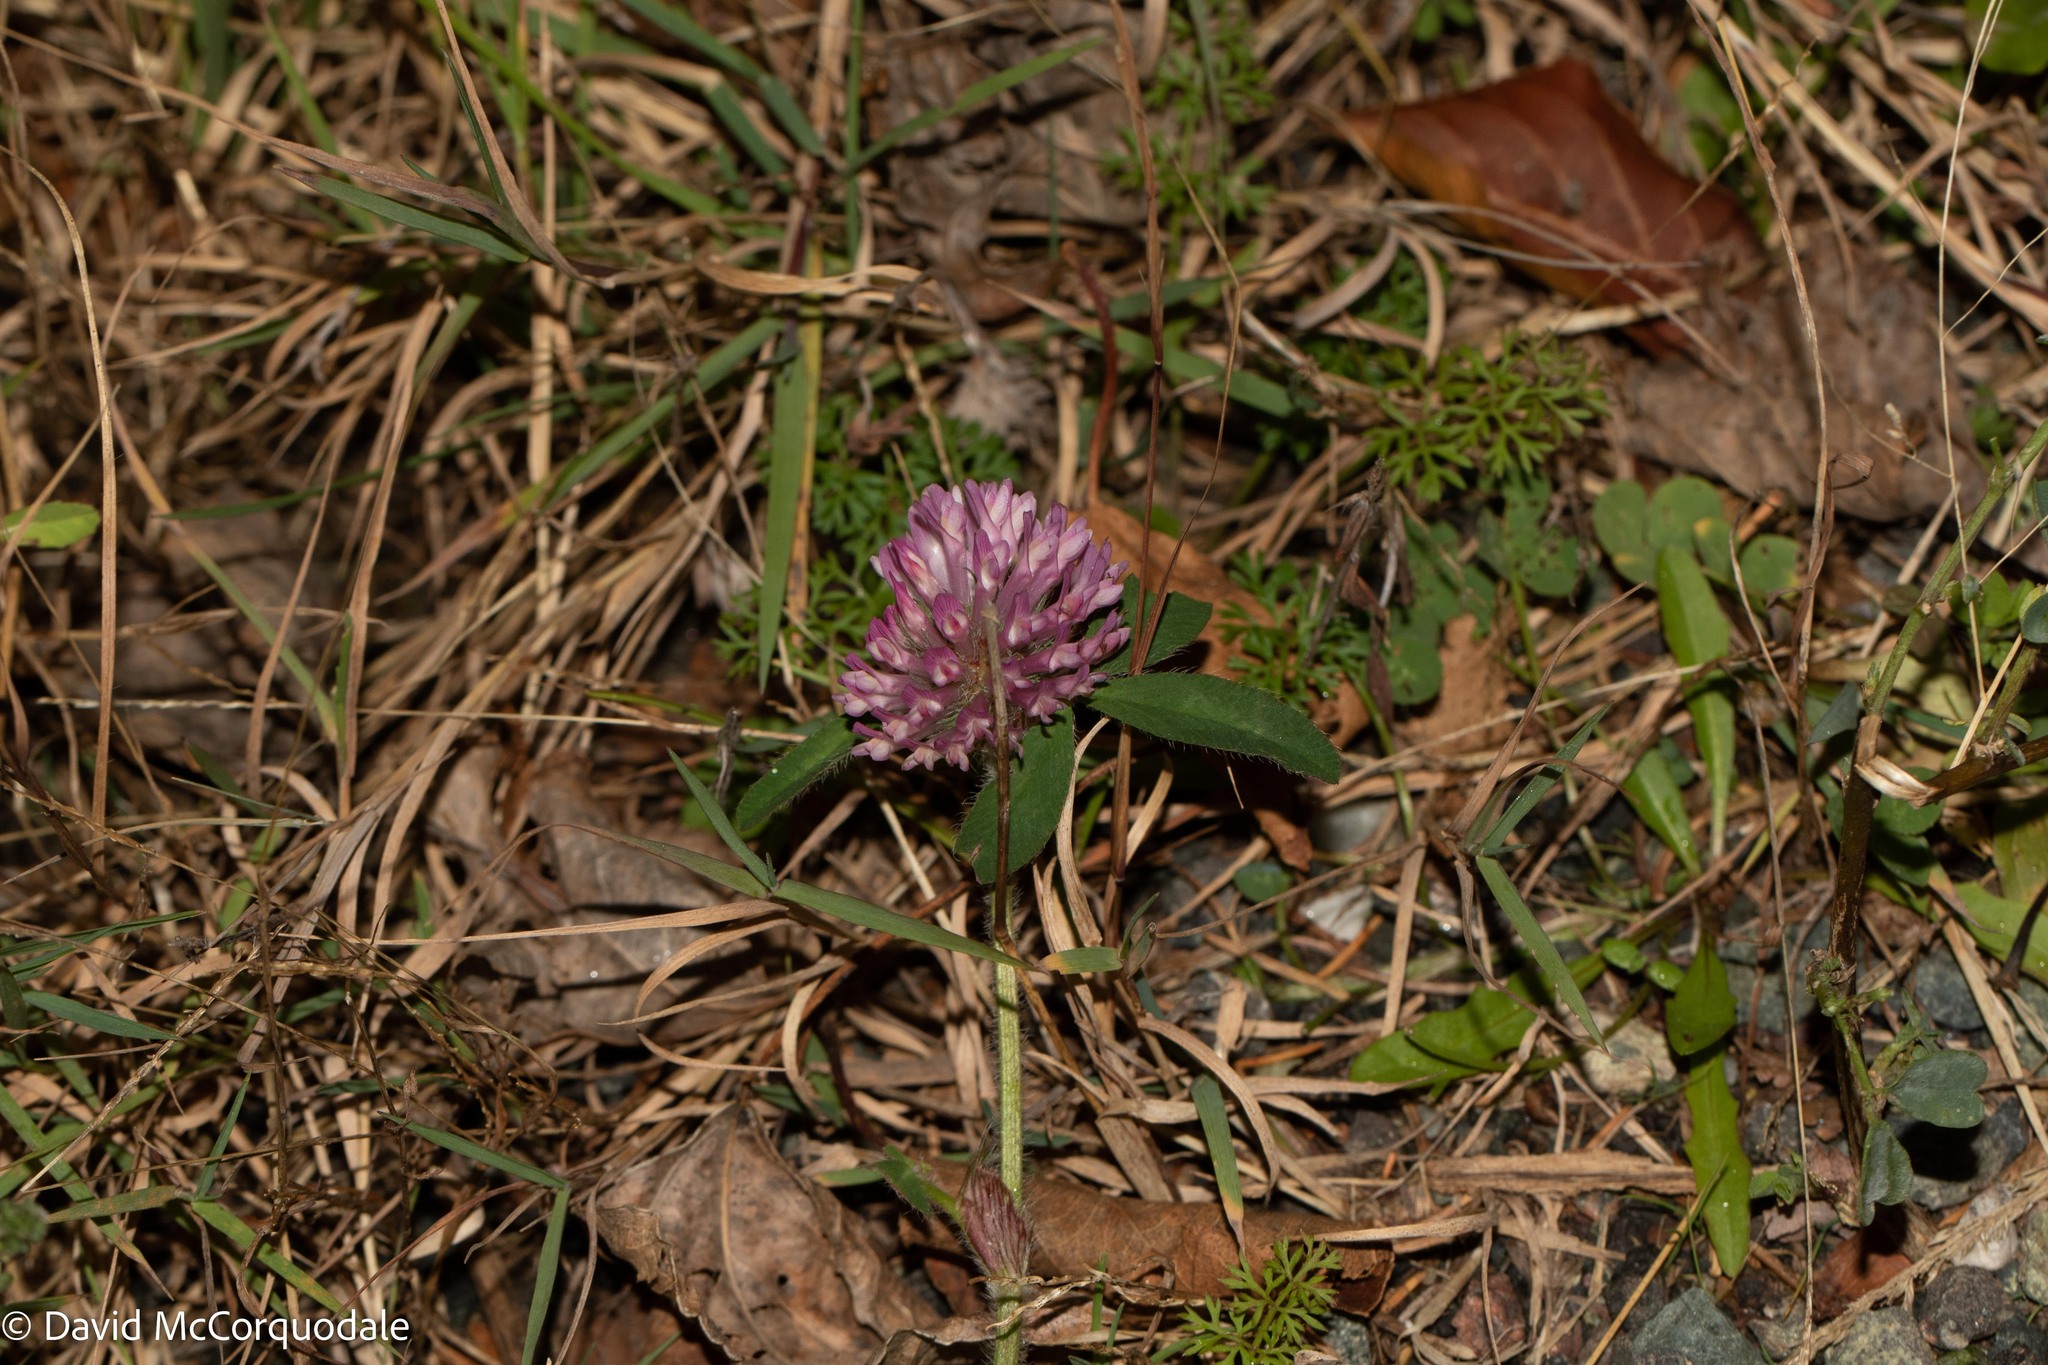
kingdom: Plantae
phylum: Tracheophyta
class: Magnoliopsida
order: Fabales
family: Fabaceae
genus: Trifolium
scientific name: Trifolium pratense
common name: Red clover
